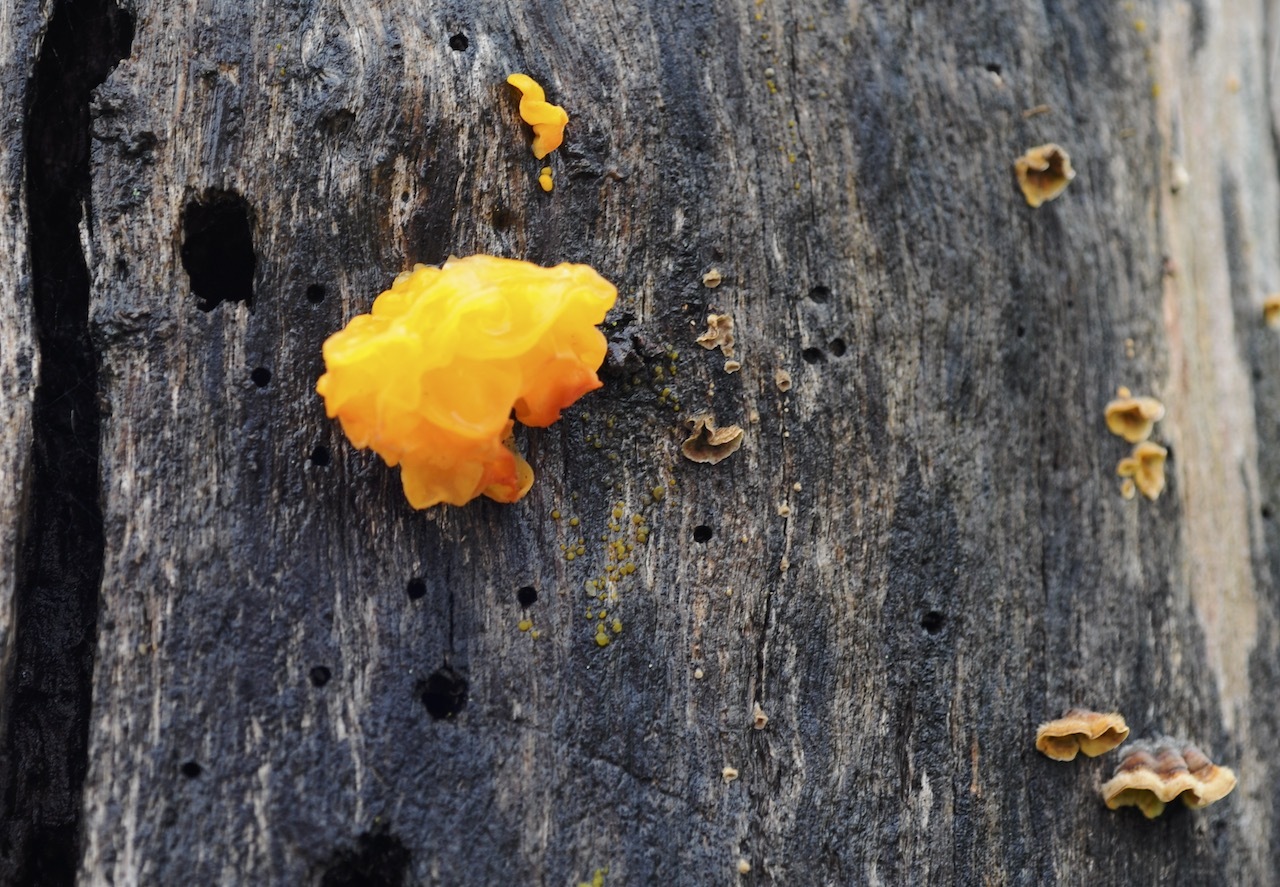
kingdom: Fungi
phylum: Basidiomycota
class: Tremellomycetes
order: Tremellales
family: Naemateliaceae
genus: Naematelia
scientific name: Naematelia aurantia
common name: Golden ear
